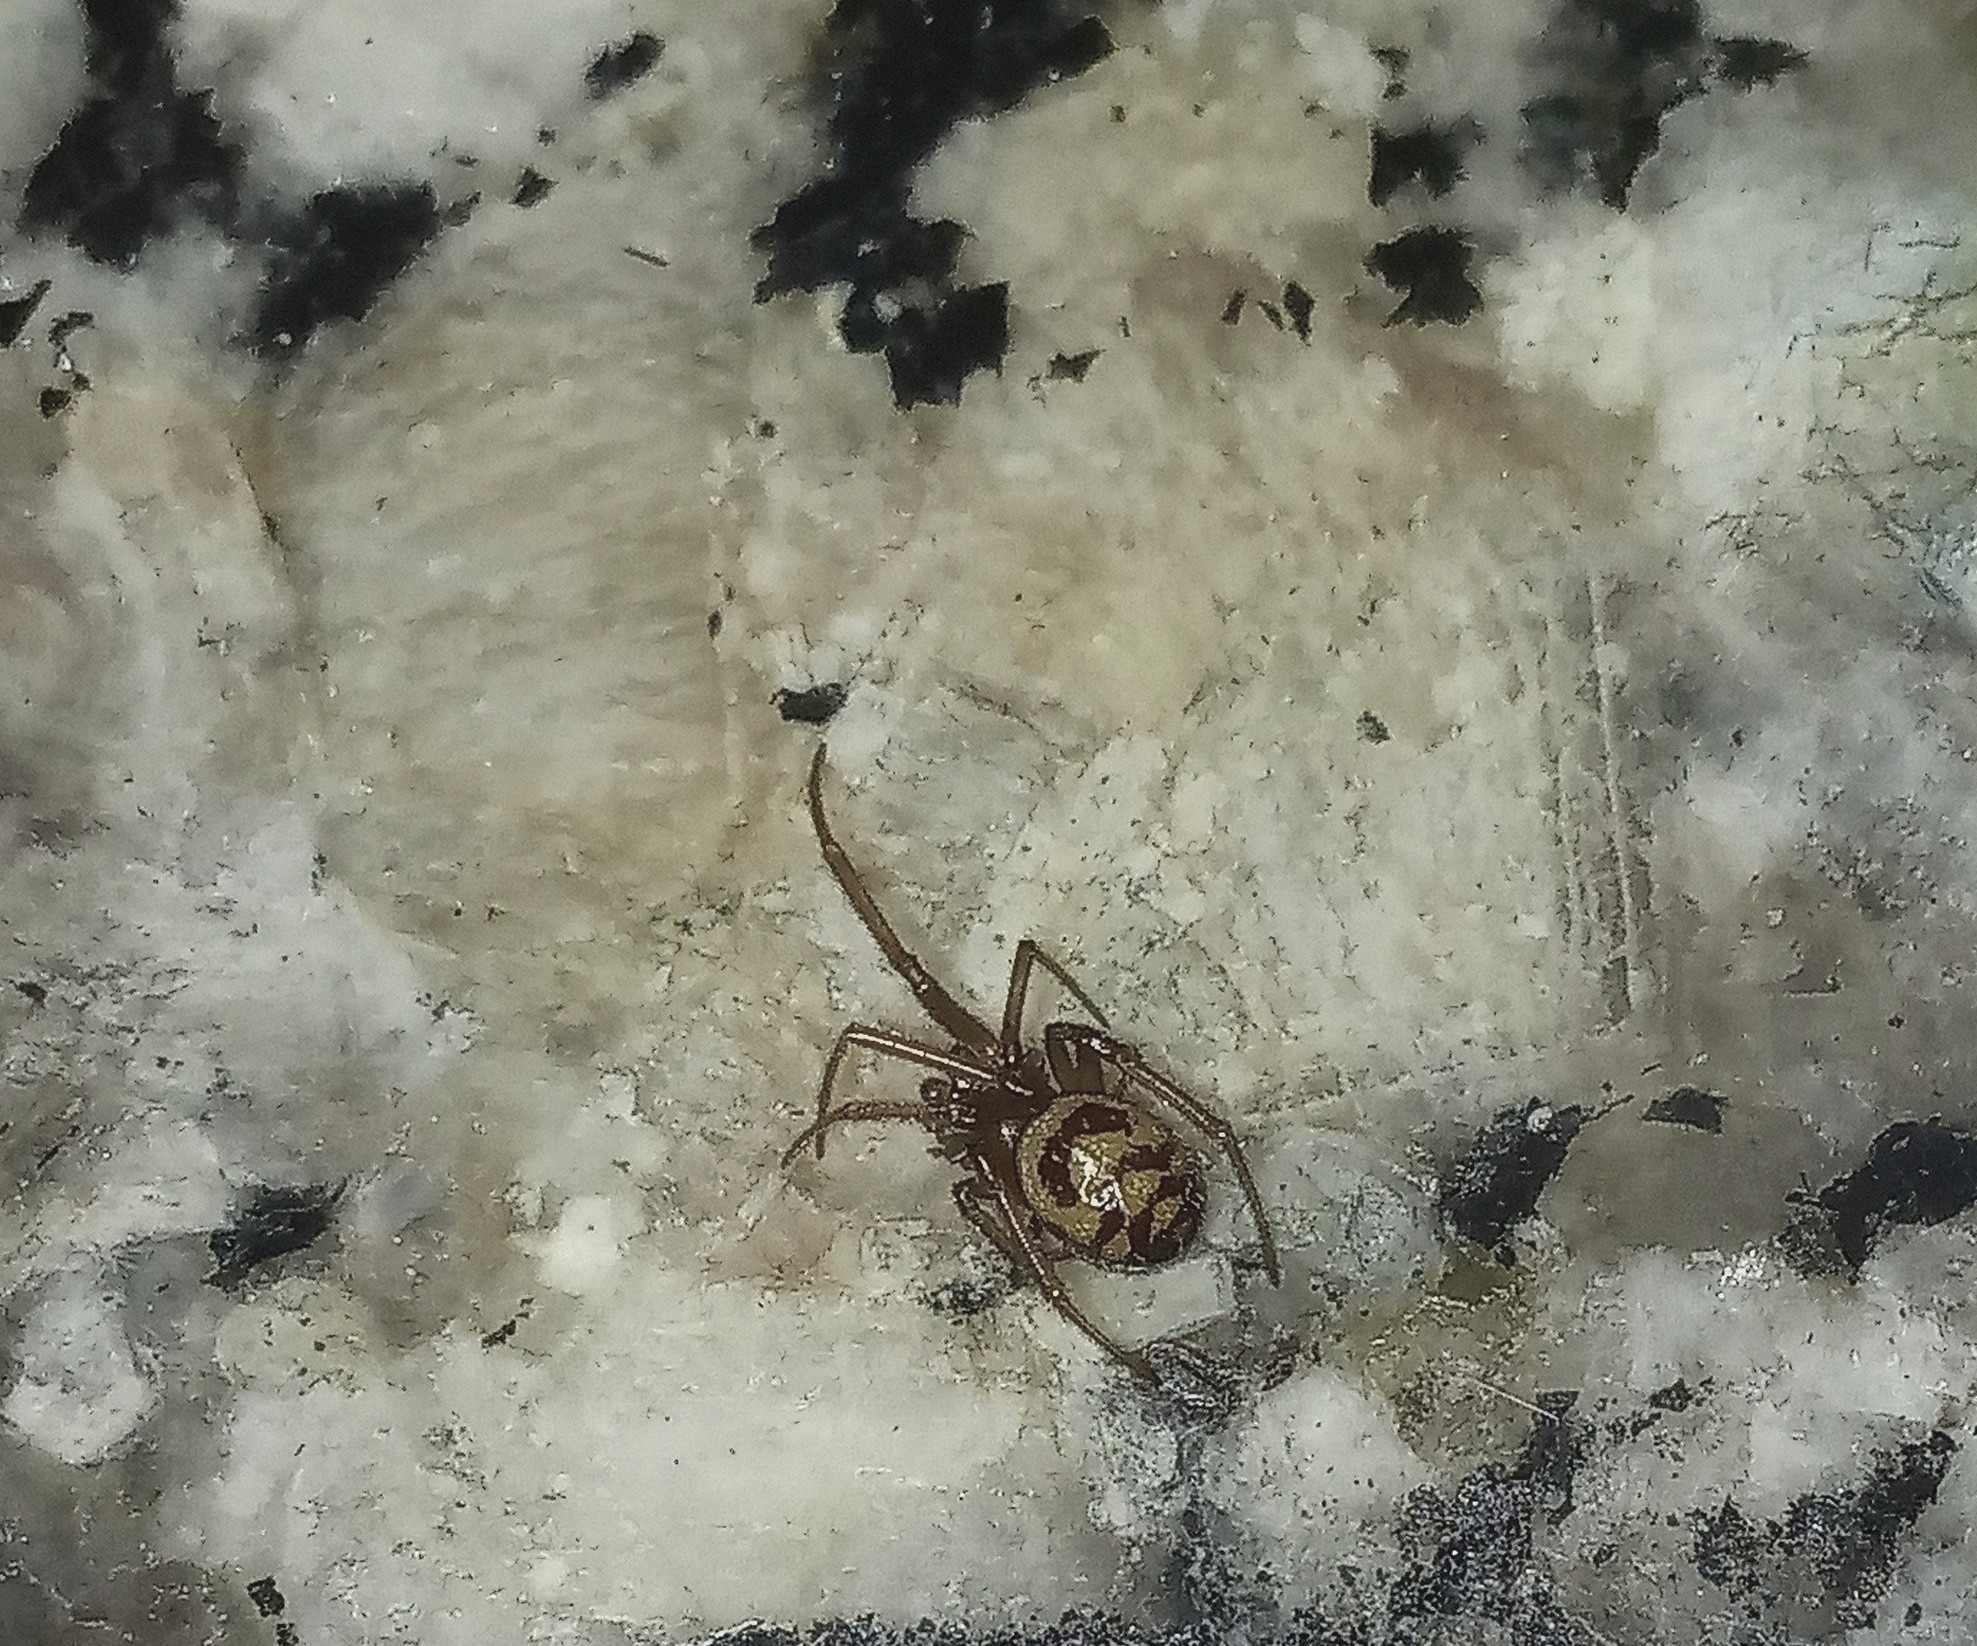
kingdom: Animalia
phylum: Arthropoda
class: Arachnida
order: Araneae
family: Theridiidae
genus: Steatoda
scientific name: Steatoda grossa
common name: False black widow
